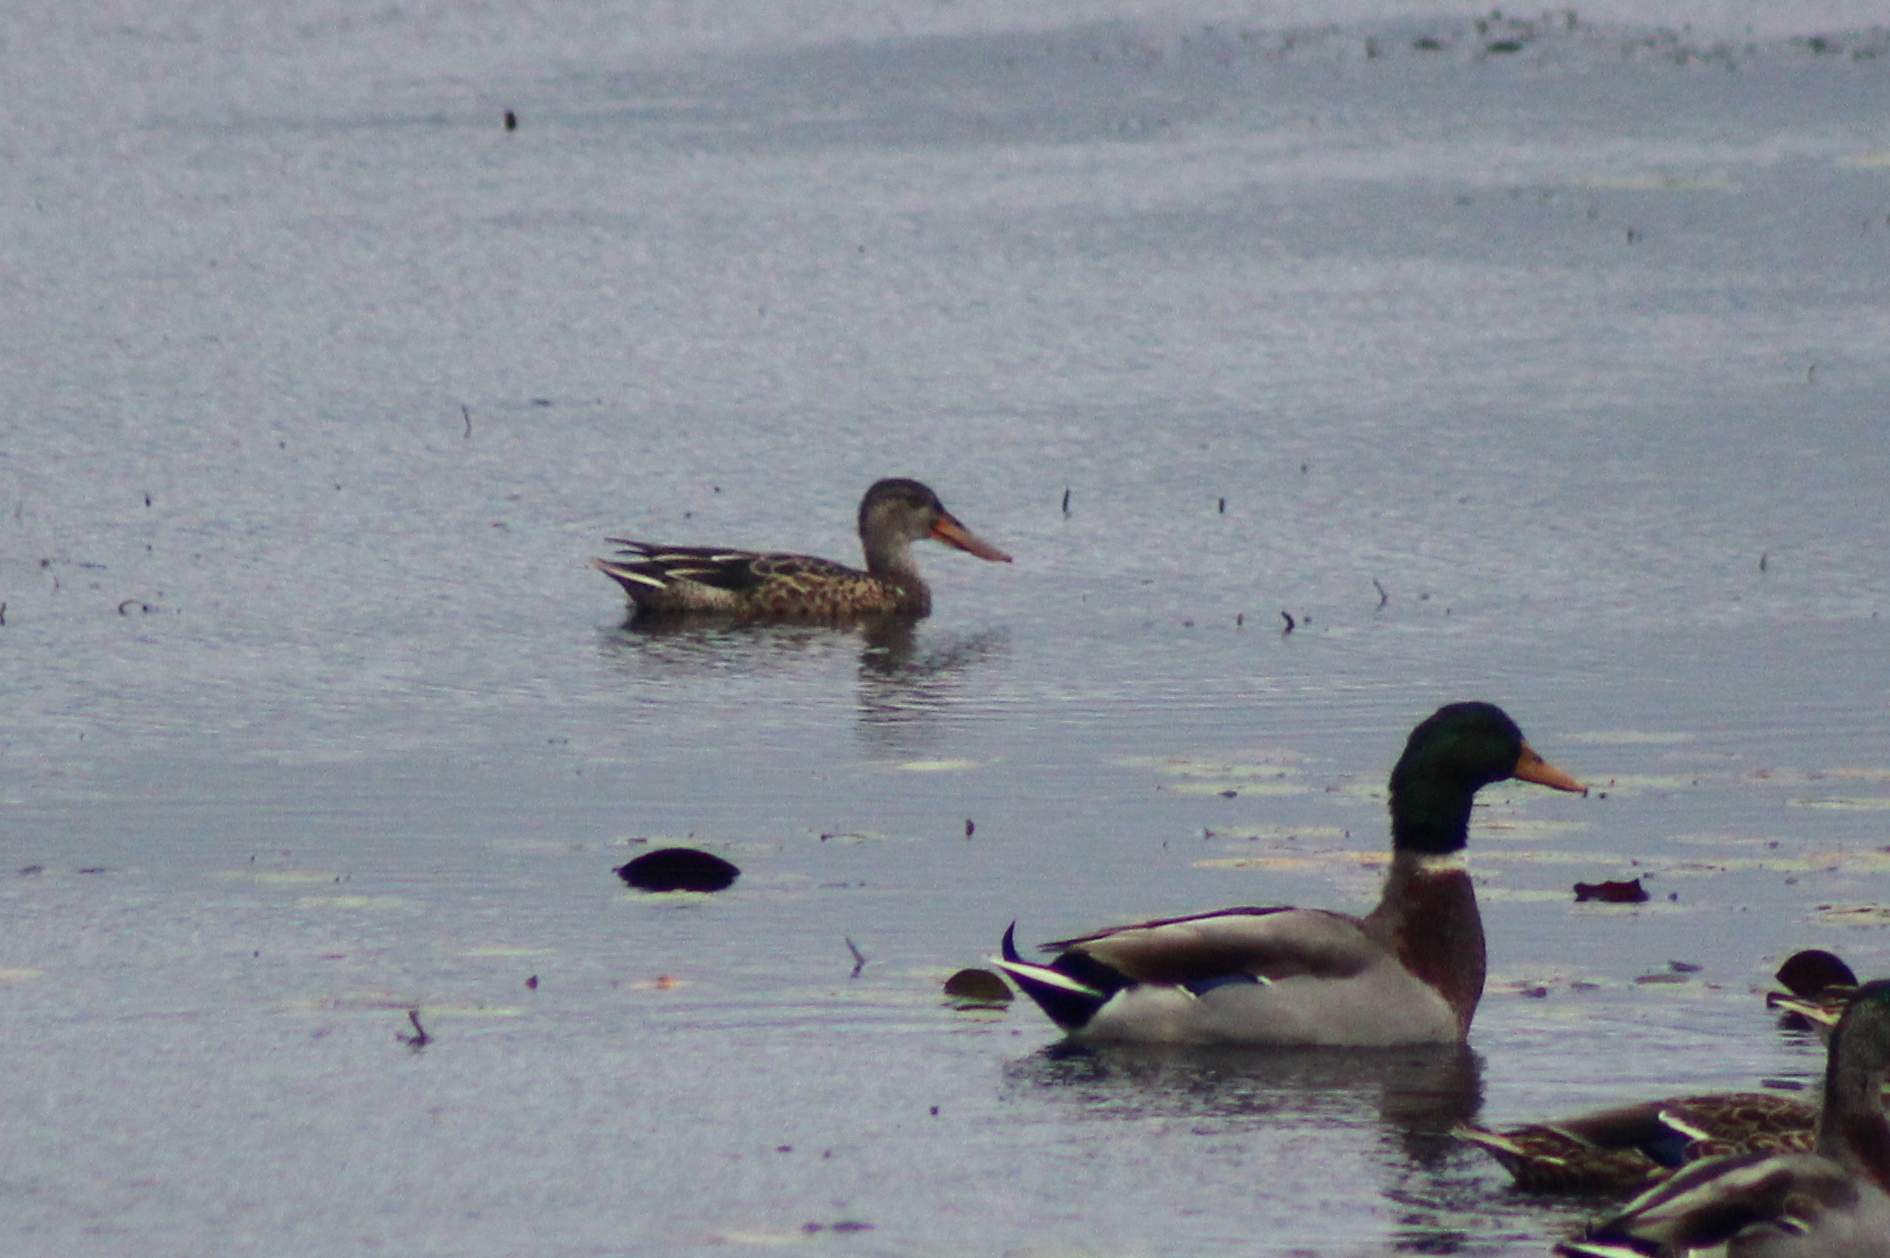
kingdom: Animalia
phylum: Chordata
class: Aves
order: Anseriformes
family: Anatidae
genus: Spatula
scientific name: Spatula clypeata
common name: Northern shoveler
